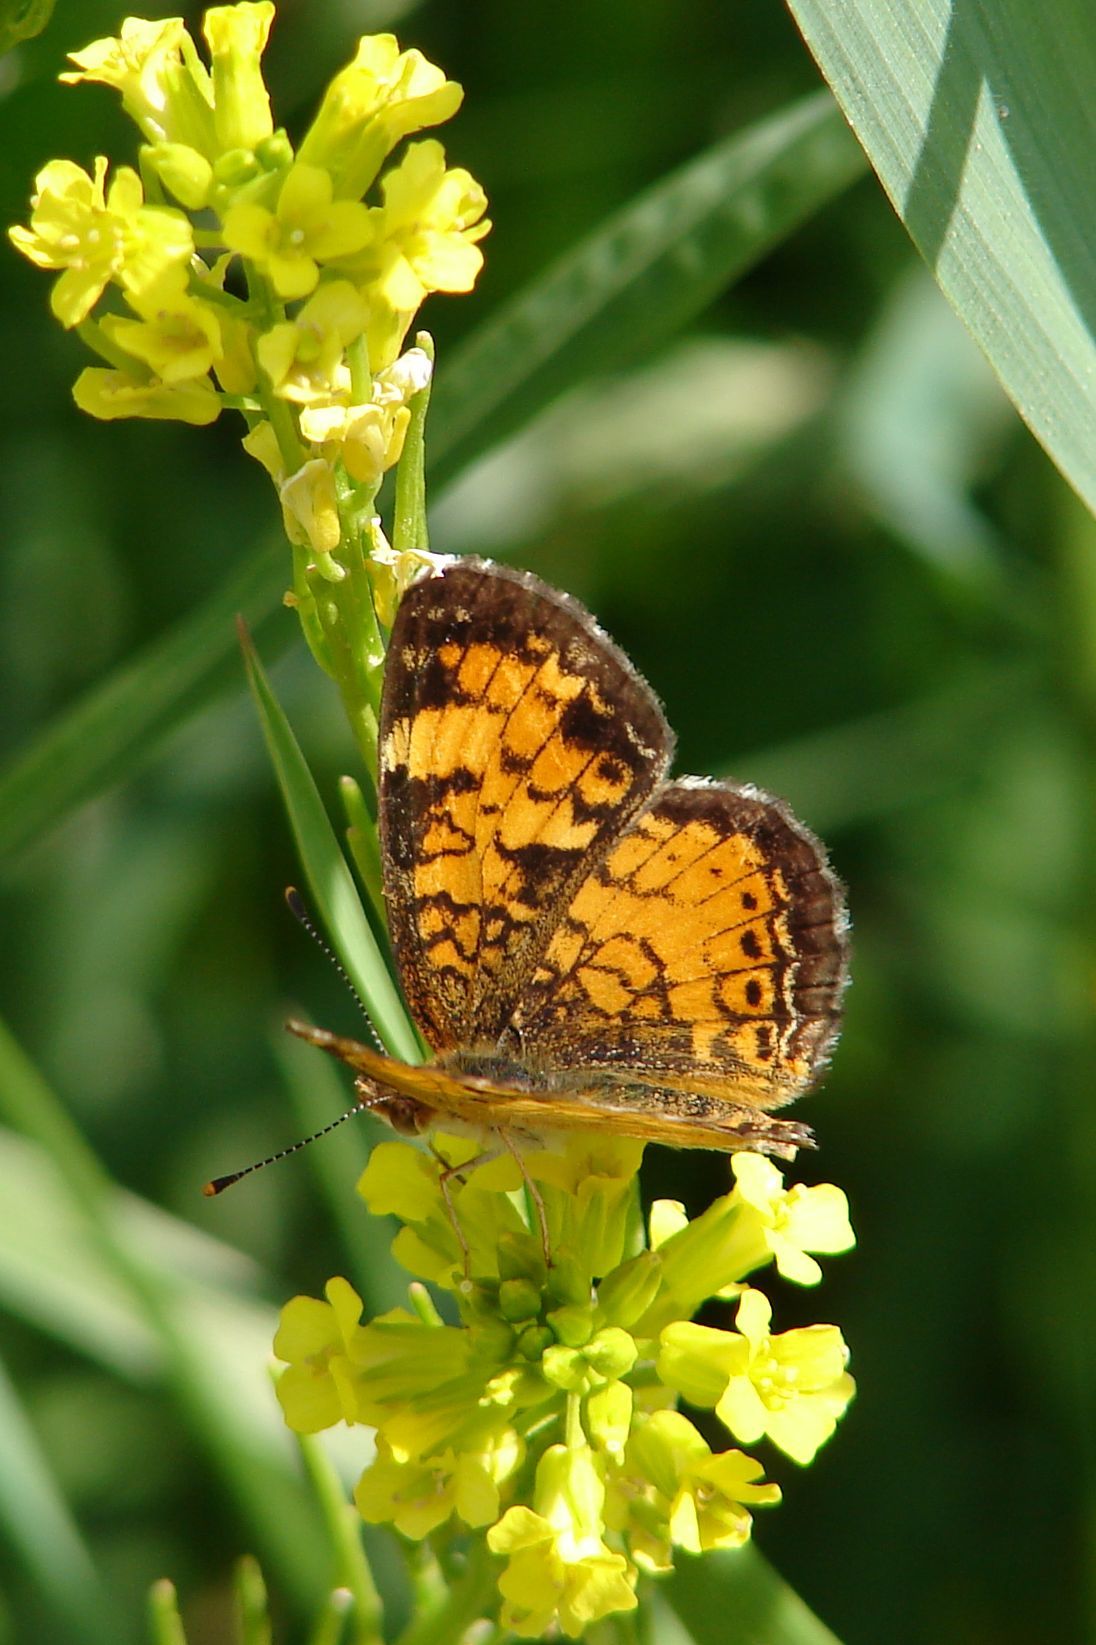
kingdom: Animalia
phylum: Arthropoda
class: Insecta
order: Lepidoptera
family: Nymphalidae
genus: Phyciodes
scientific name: Phyciodes tharos
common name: Pearl crescent
